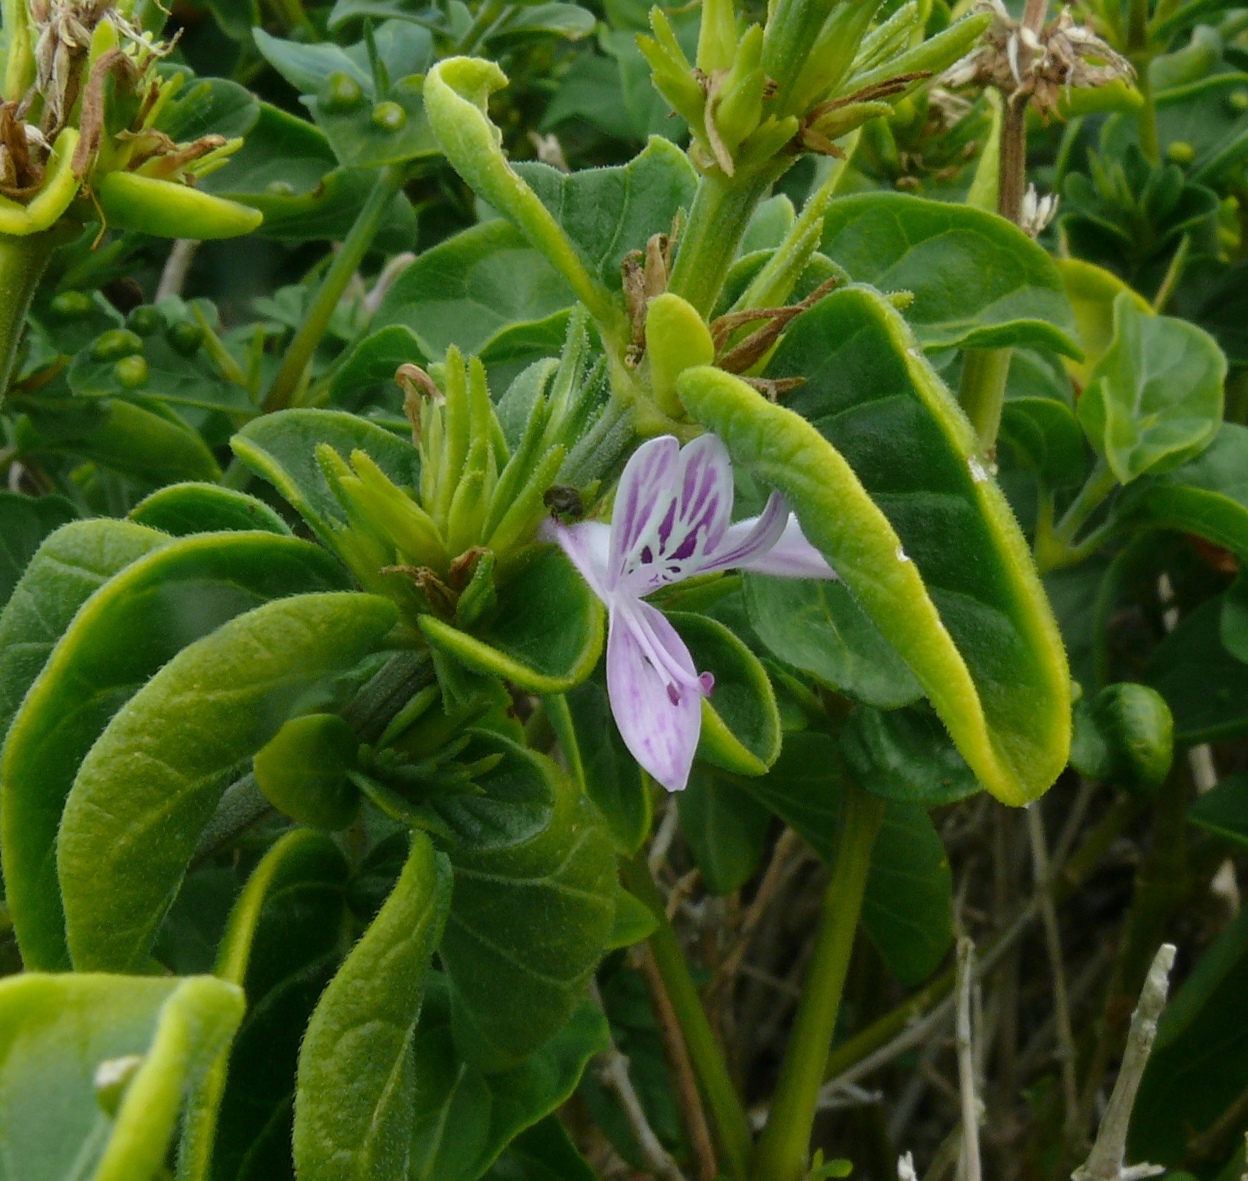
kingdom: Plantae
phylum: Tracheophyta
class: Magnoliopsida
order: Lamiales
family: Acanthaceae
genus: Hypoestes
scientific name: Hypoestes aristata
